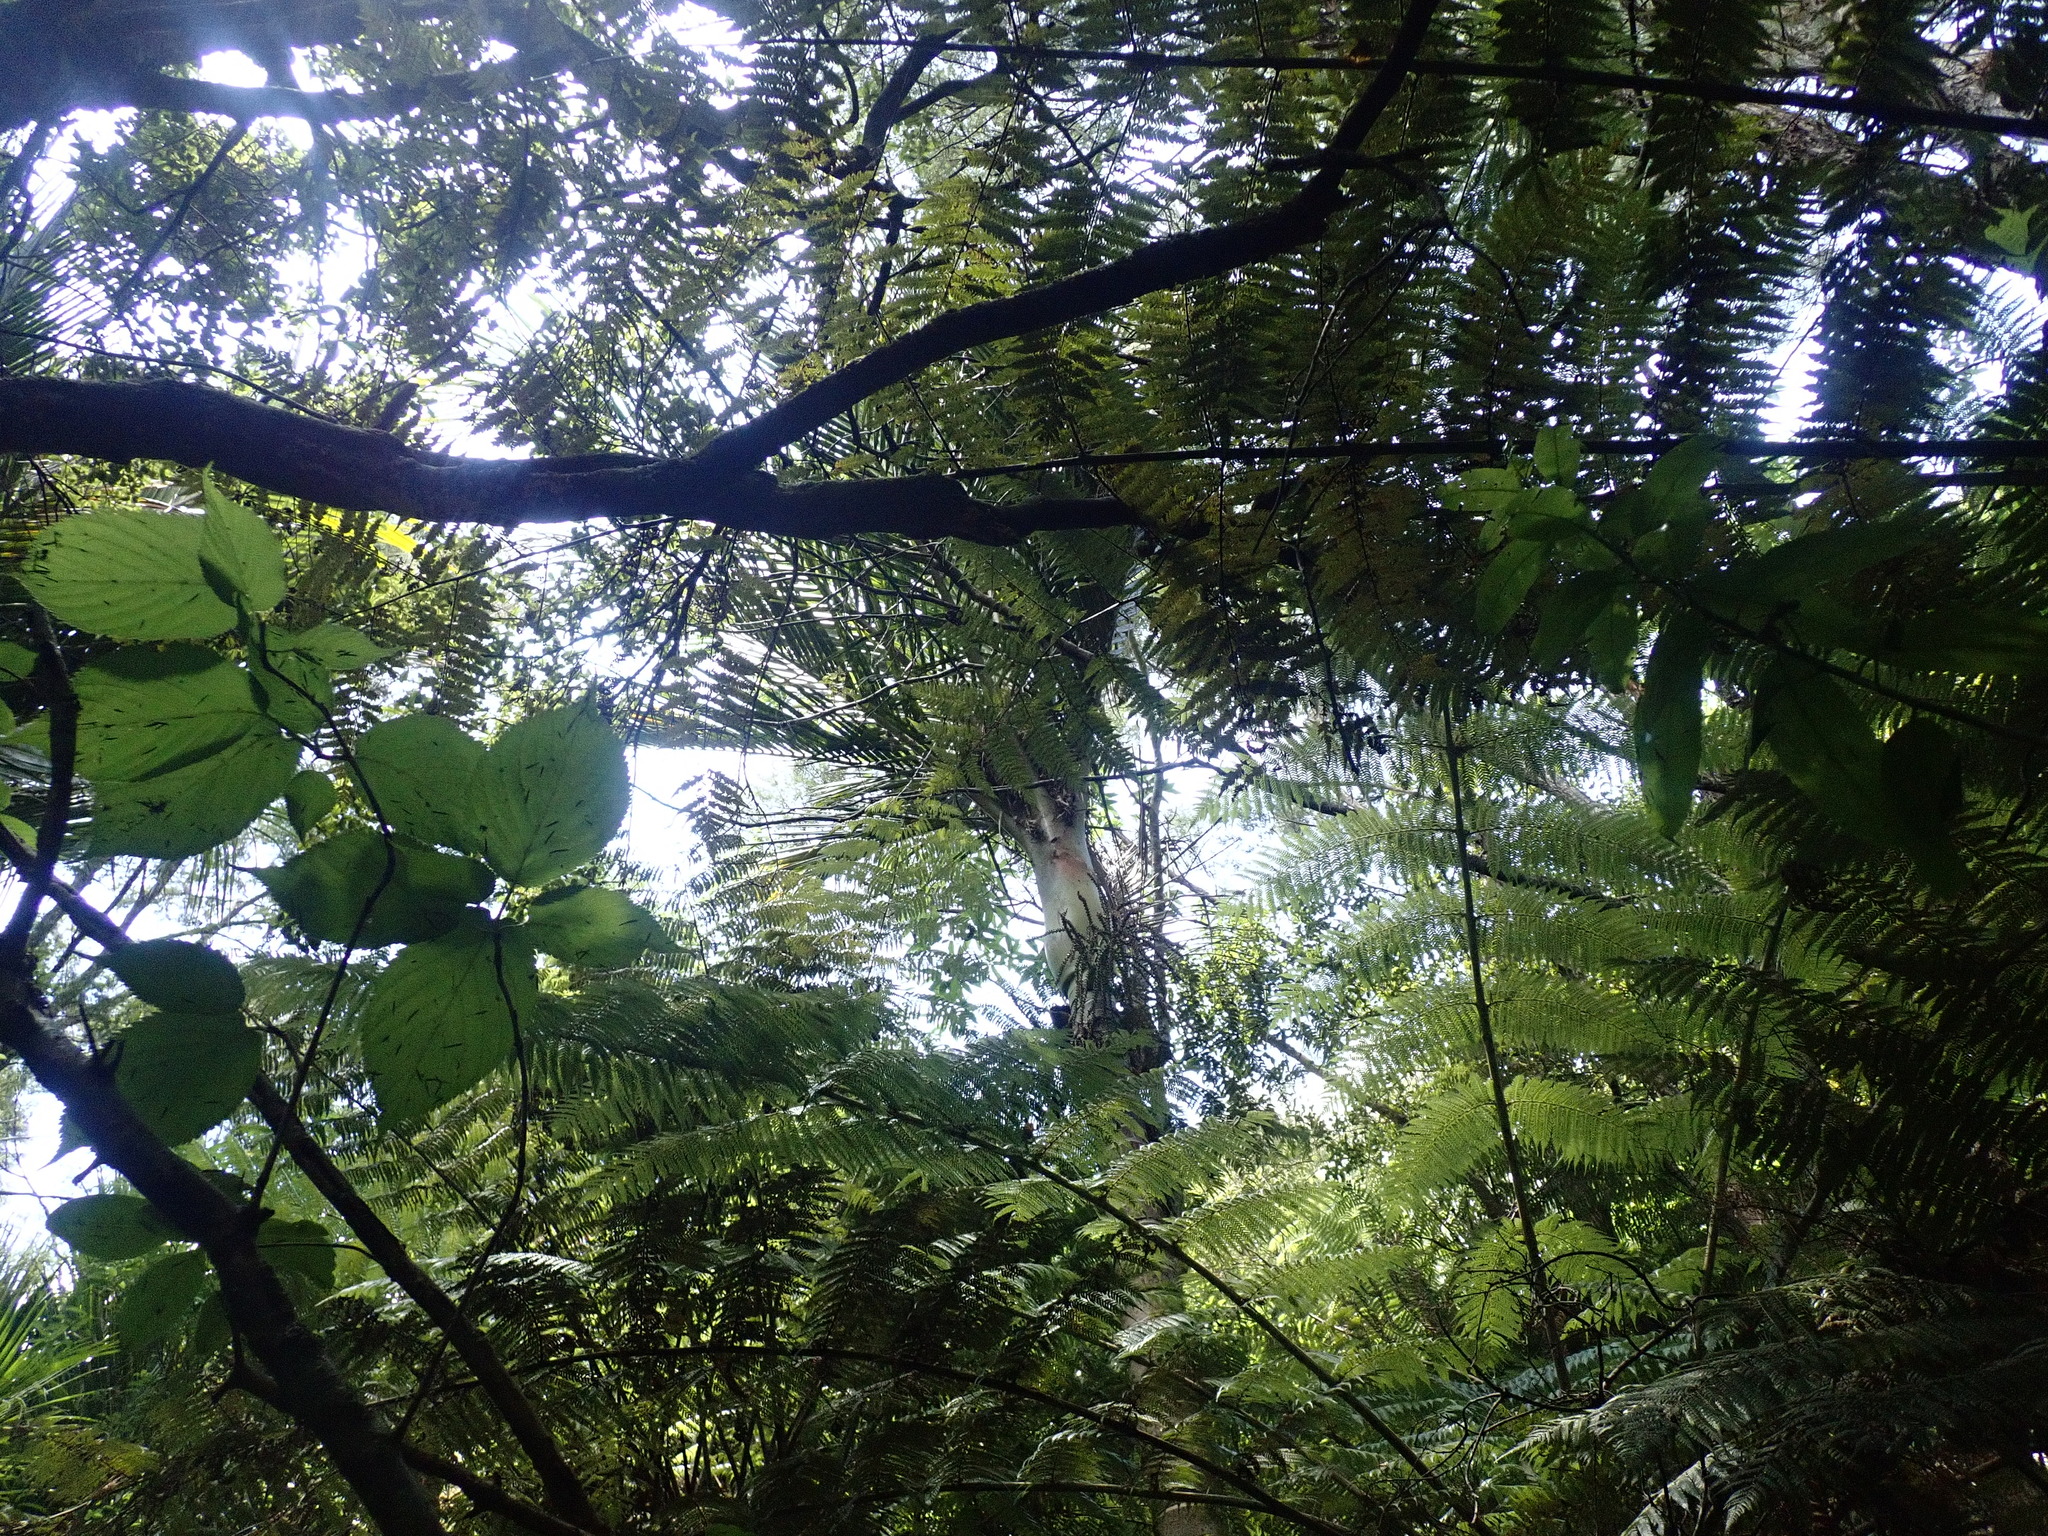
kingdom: Plantae
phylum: Tracheophyta
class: Liliopsida
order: Arecales
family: Arecaceae
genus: Rhopalostylis
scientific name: Rhopalostylis sapida
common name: Feather-duster palm
